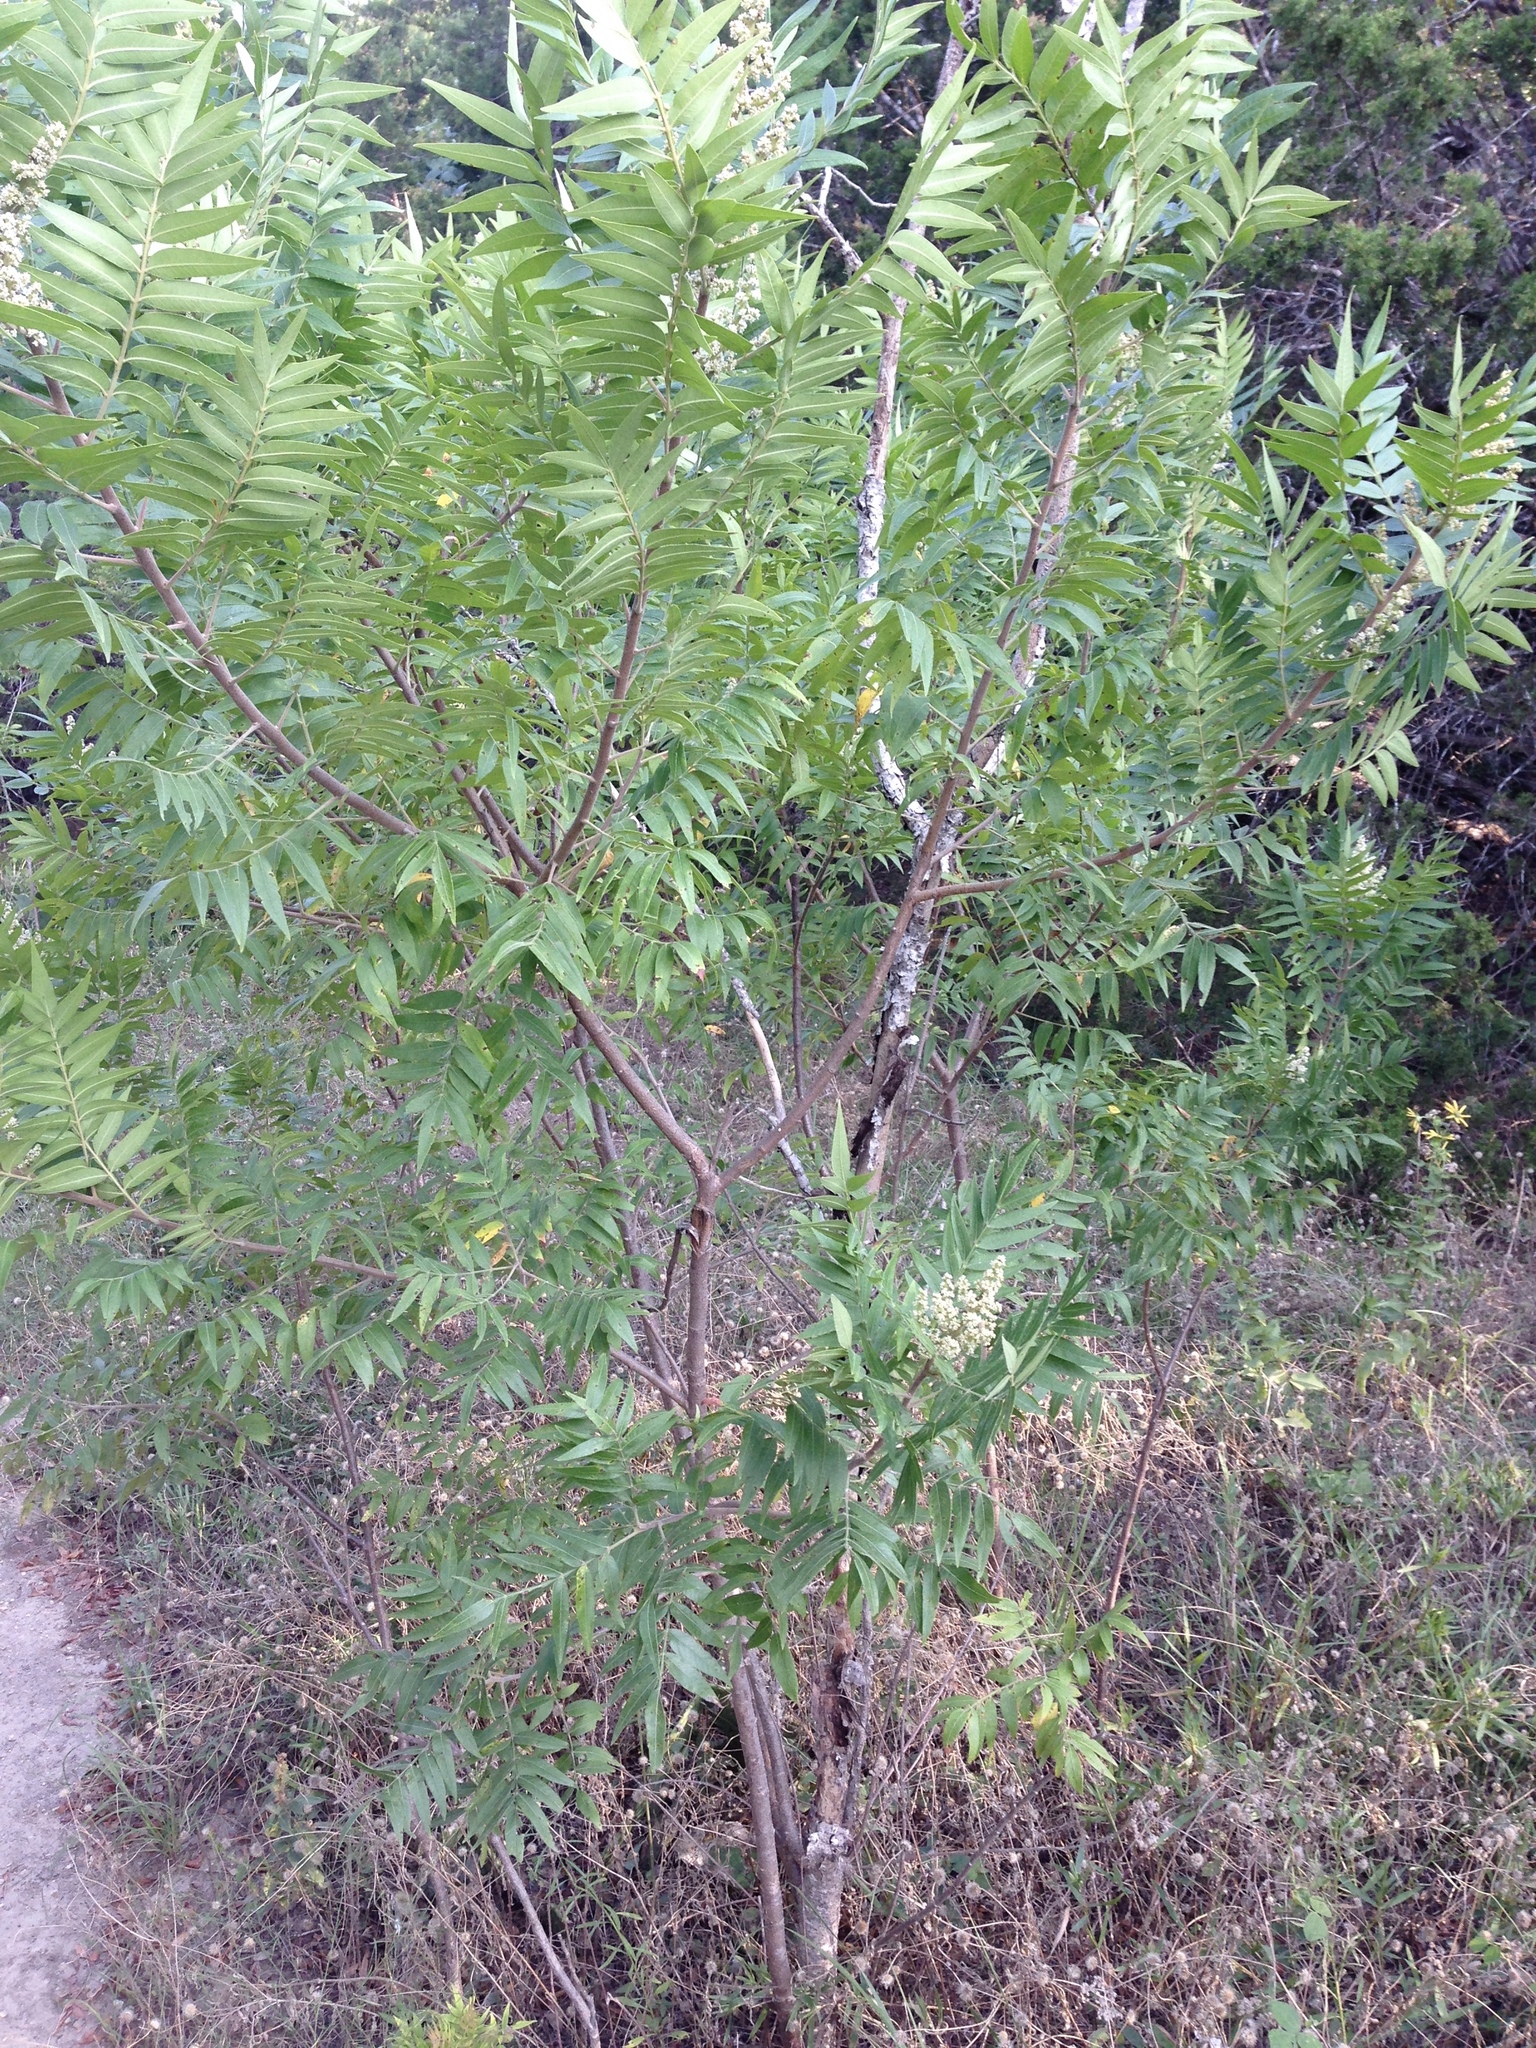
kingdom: Plantae
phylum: Tracheophyta
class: Magnoliopsida
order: Sapindales
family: Anacardiaceae
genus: Rhus
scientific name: Rhus lanceolata
